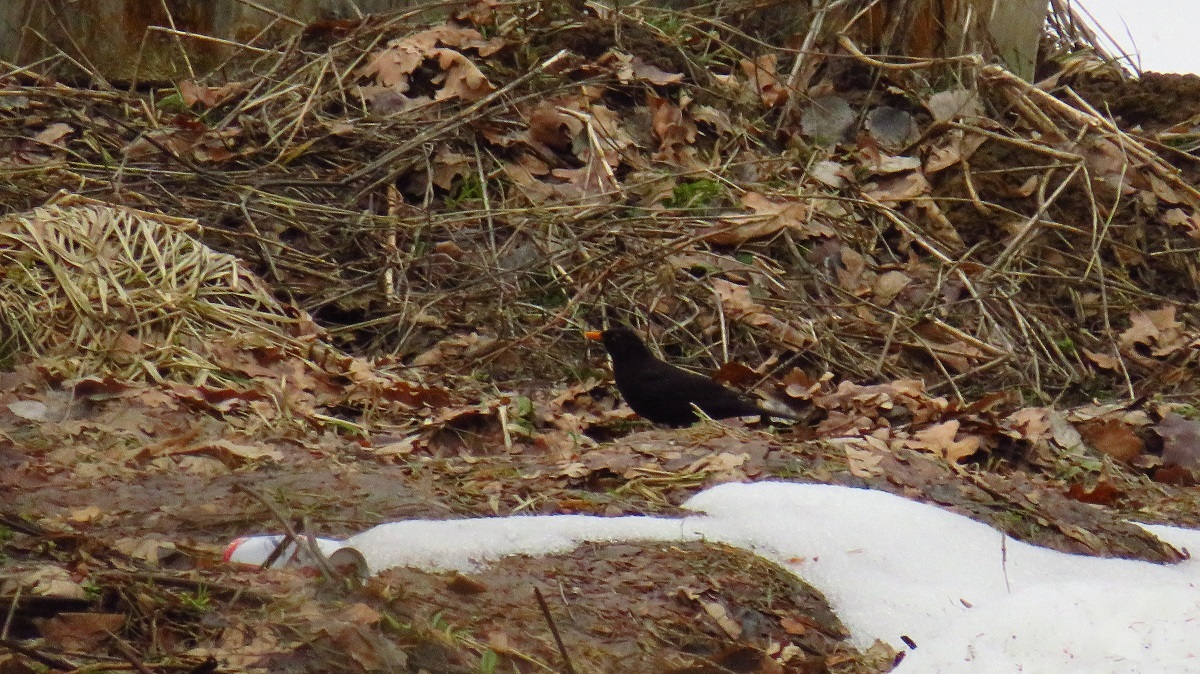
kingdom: Animalia
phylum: Chordata
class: Aves
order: Passeriformes
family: Turdidae
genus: Turdus
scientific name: Turdus merula
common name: Common blackbird
